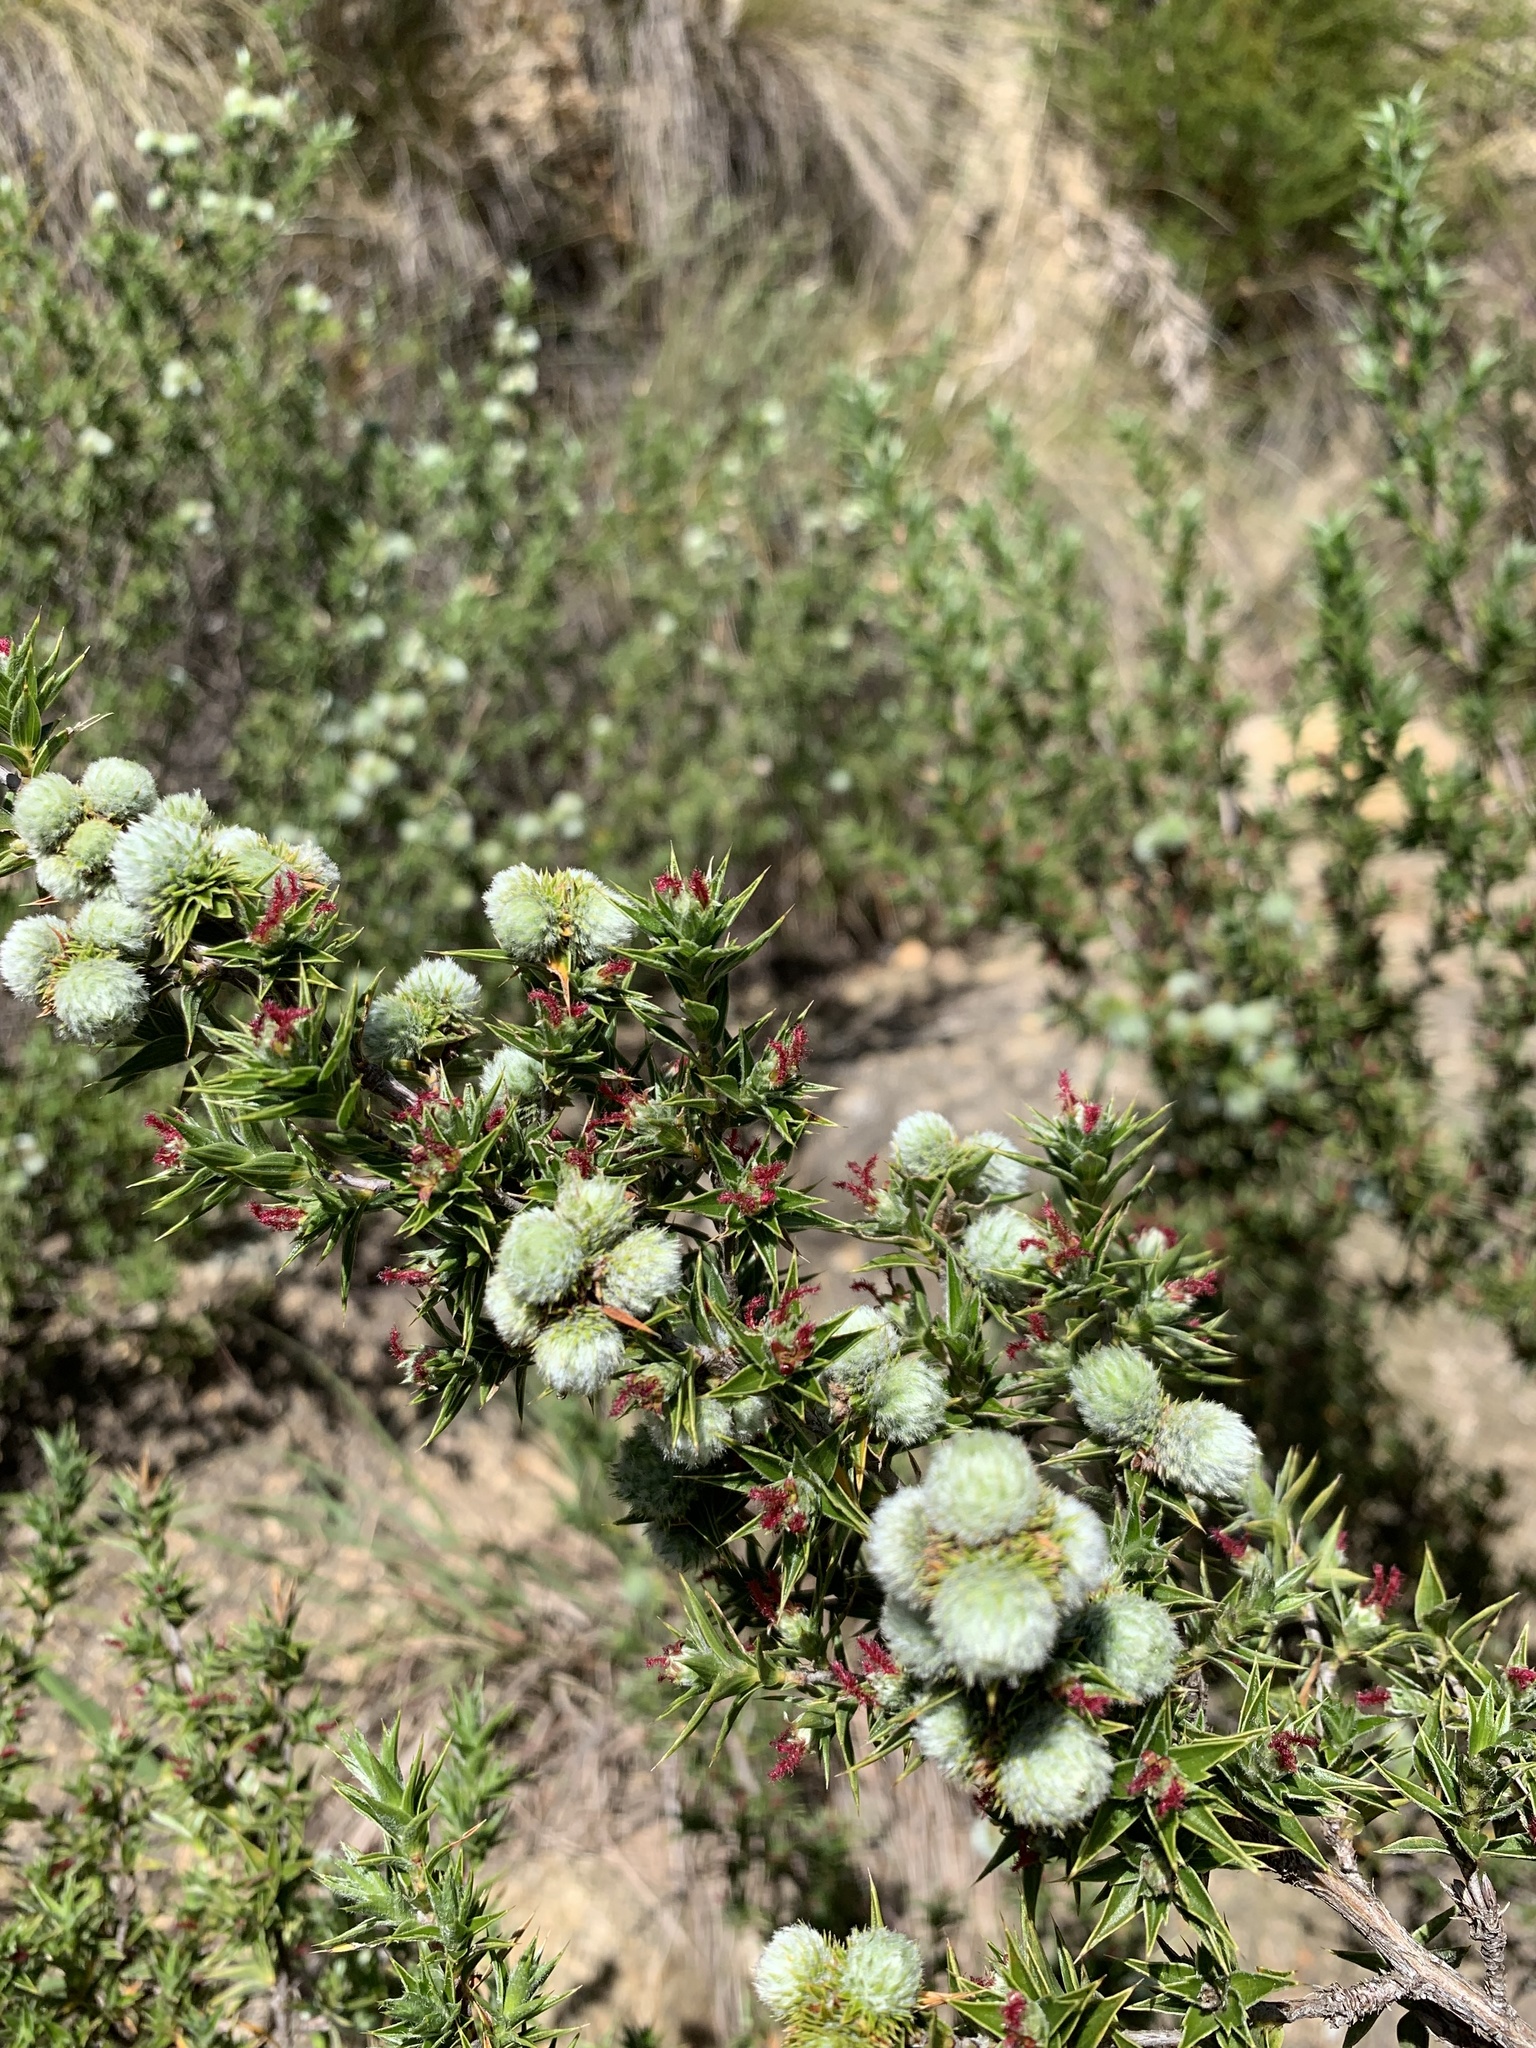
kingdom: Plantae
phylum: Tracheophyta
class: Magnoliopsida
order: Rosales
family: Rosaceae
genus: Cliffortia
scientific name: Cliffortia ruscifolia
